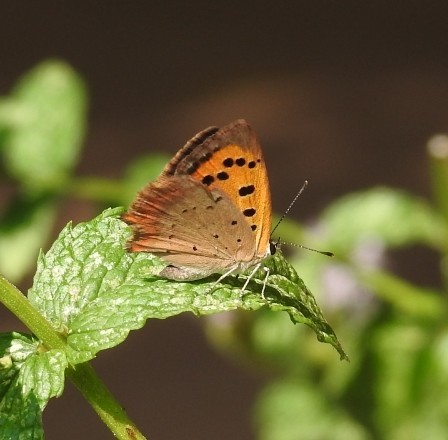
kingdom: Animalia
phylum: Arthropoda
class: Insecta
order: Lepidoptera
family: Lycaenidae
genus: Lycaena
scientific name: Lycaena phlaeas
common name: Small copper
